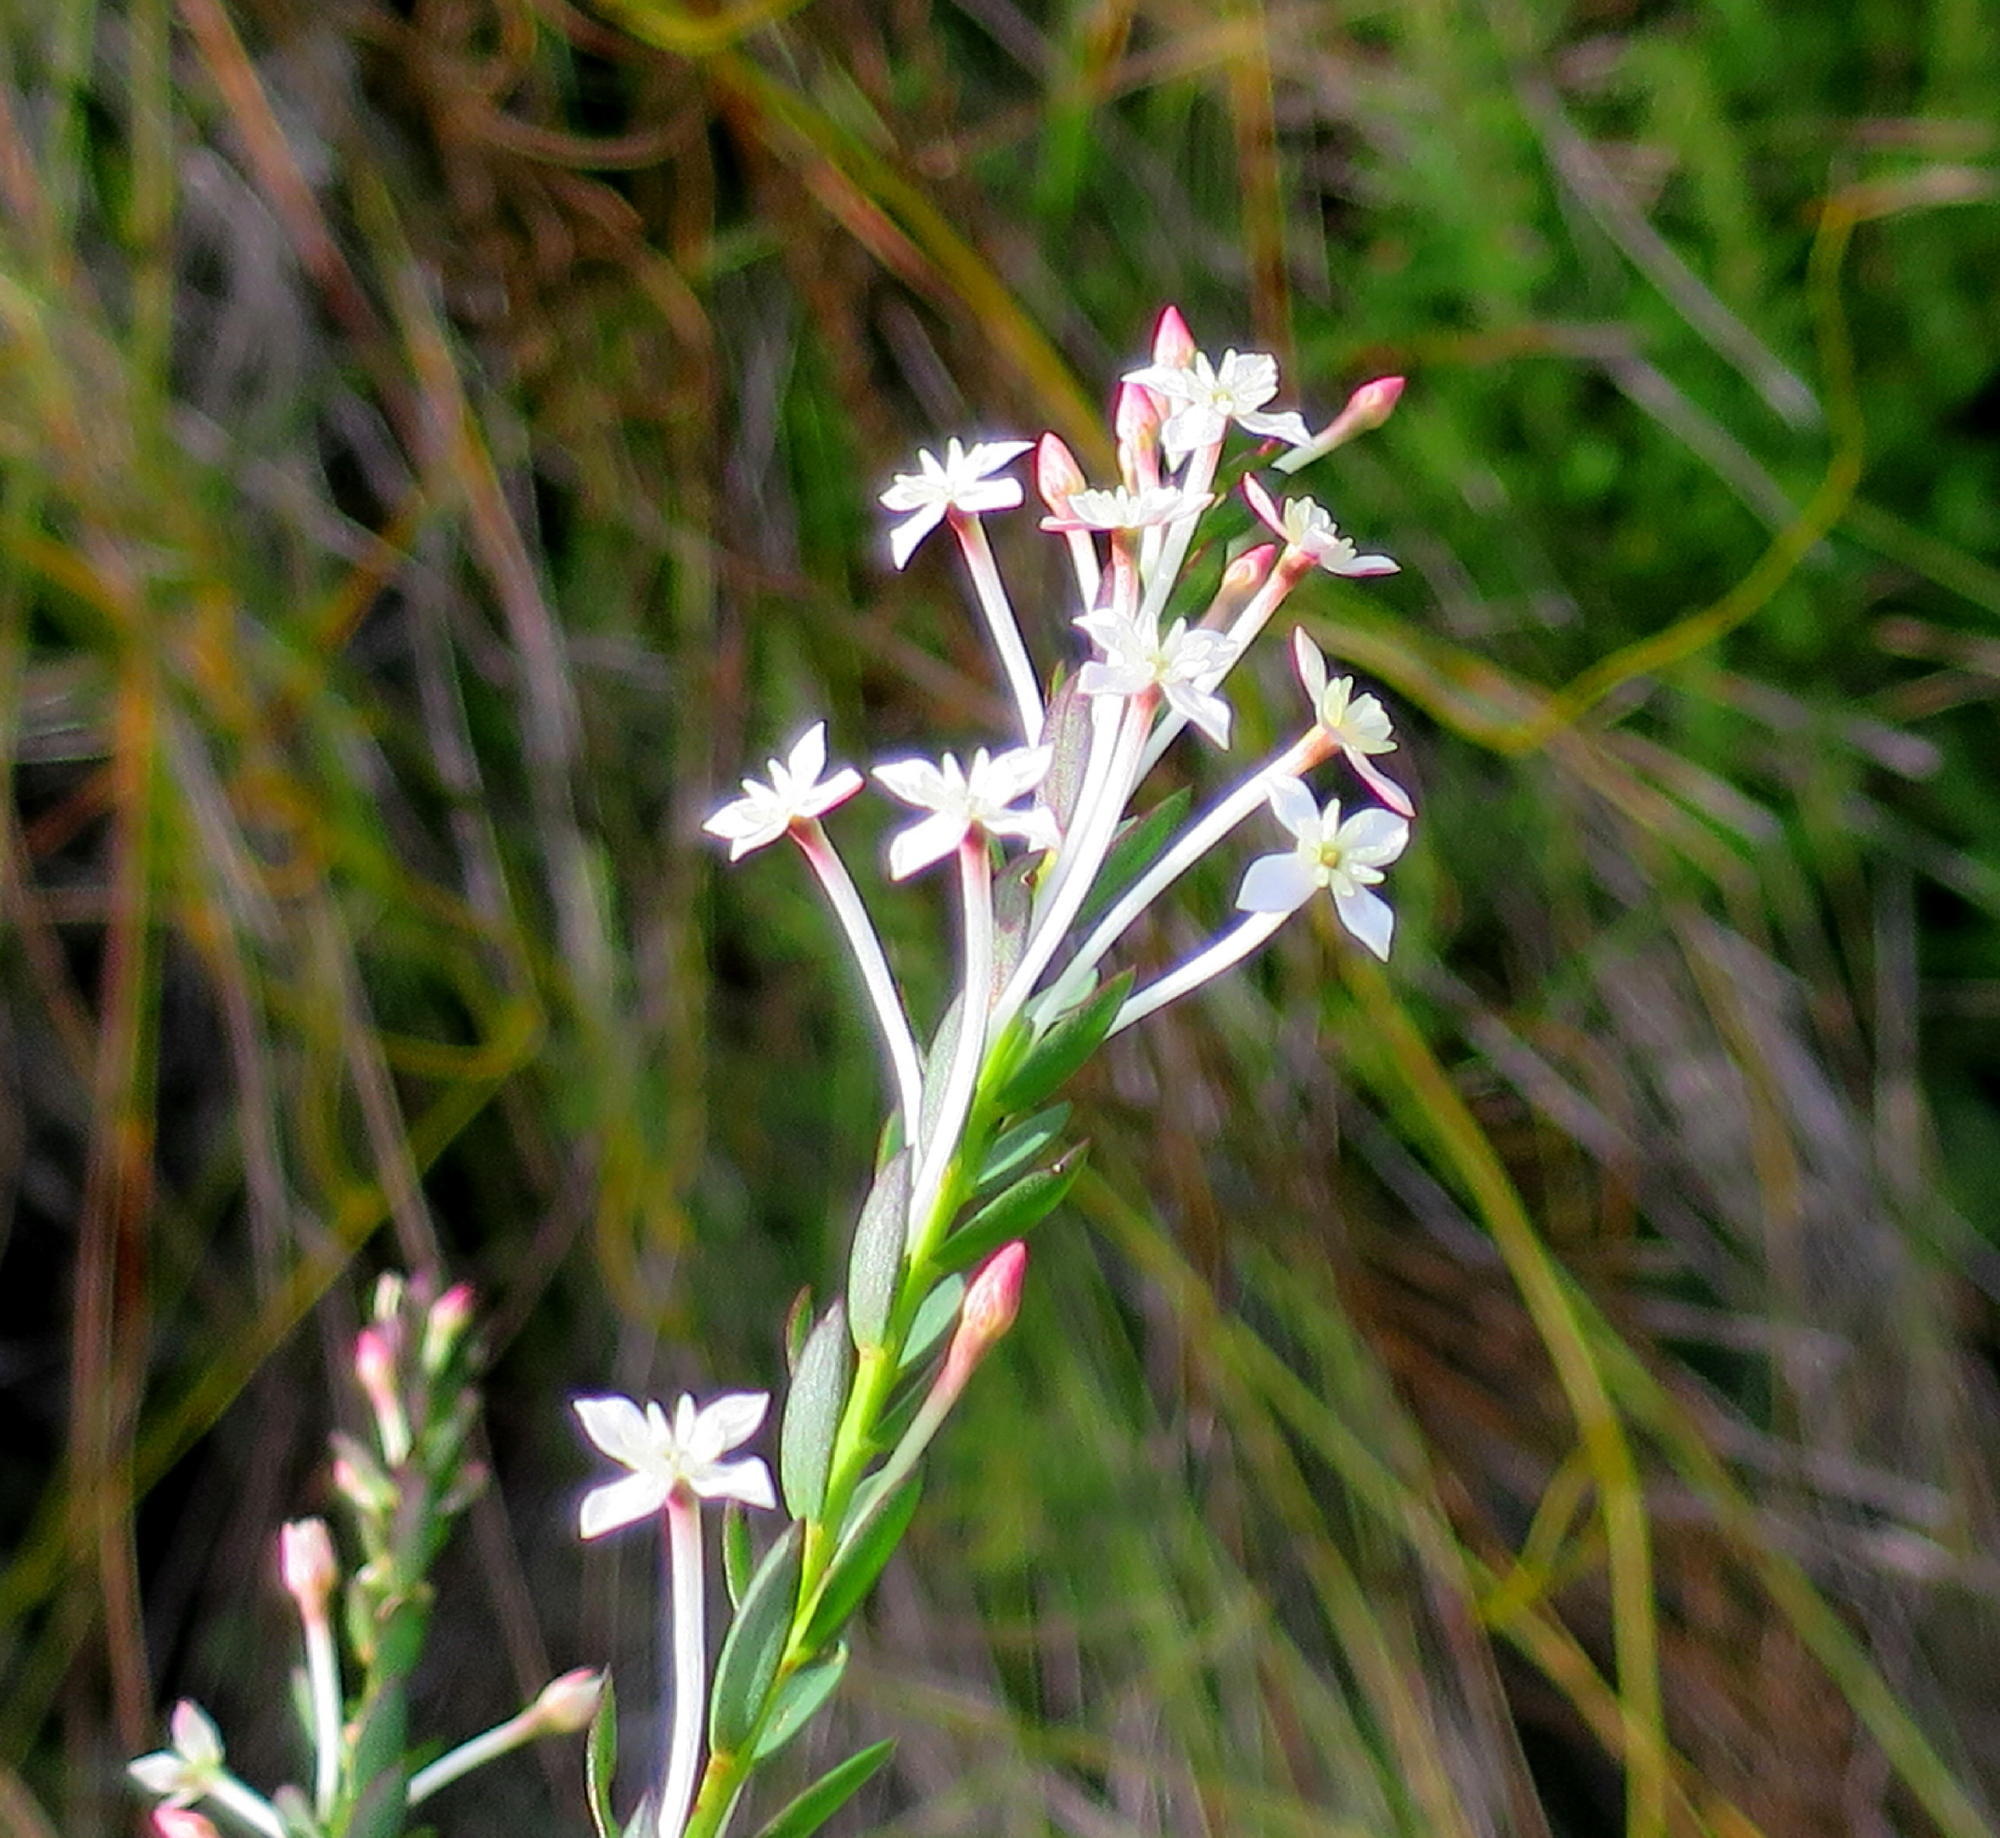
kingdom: Plantae
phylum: Tracheophyta
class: Magnoliopsida
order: Malvales
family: Thymelaeaceae
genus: Struthiola
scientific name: Struthiola myrsinites
